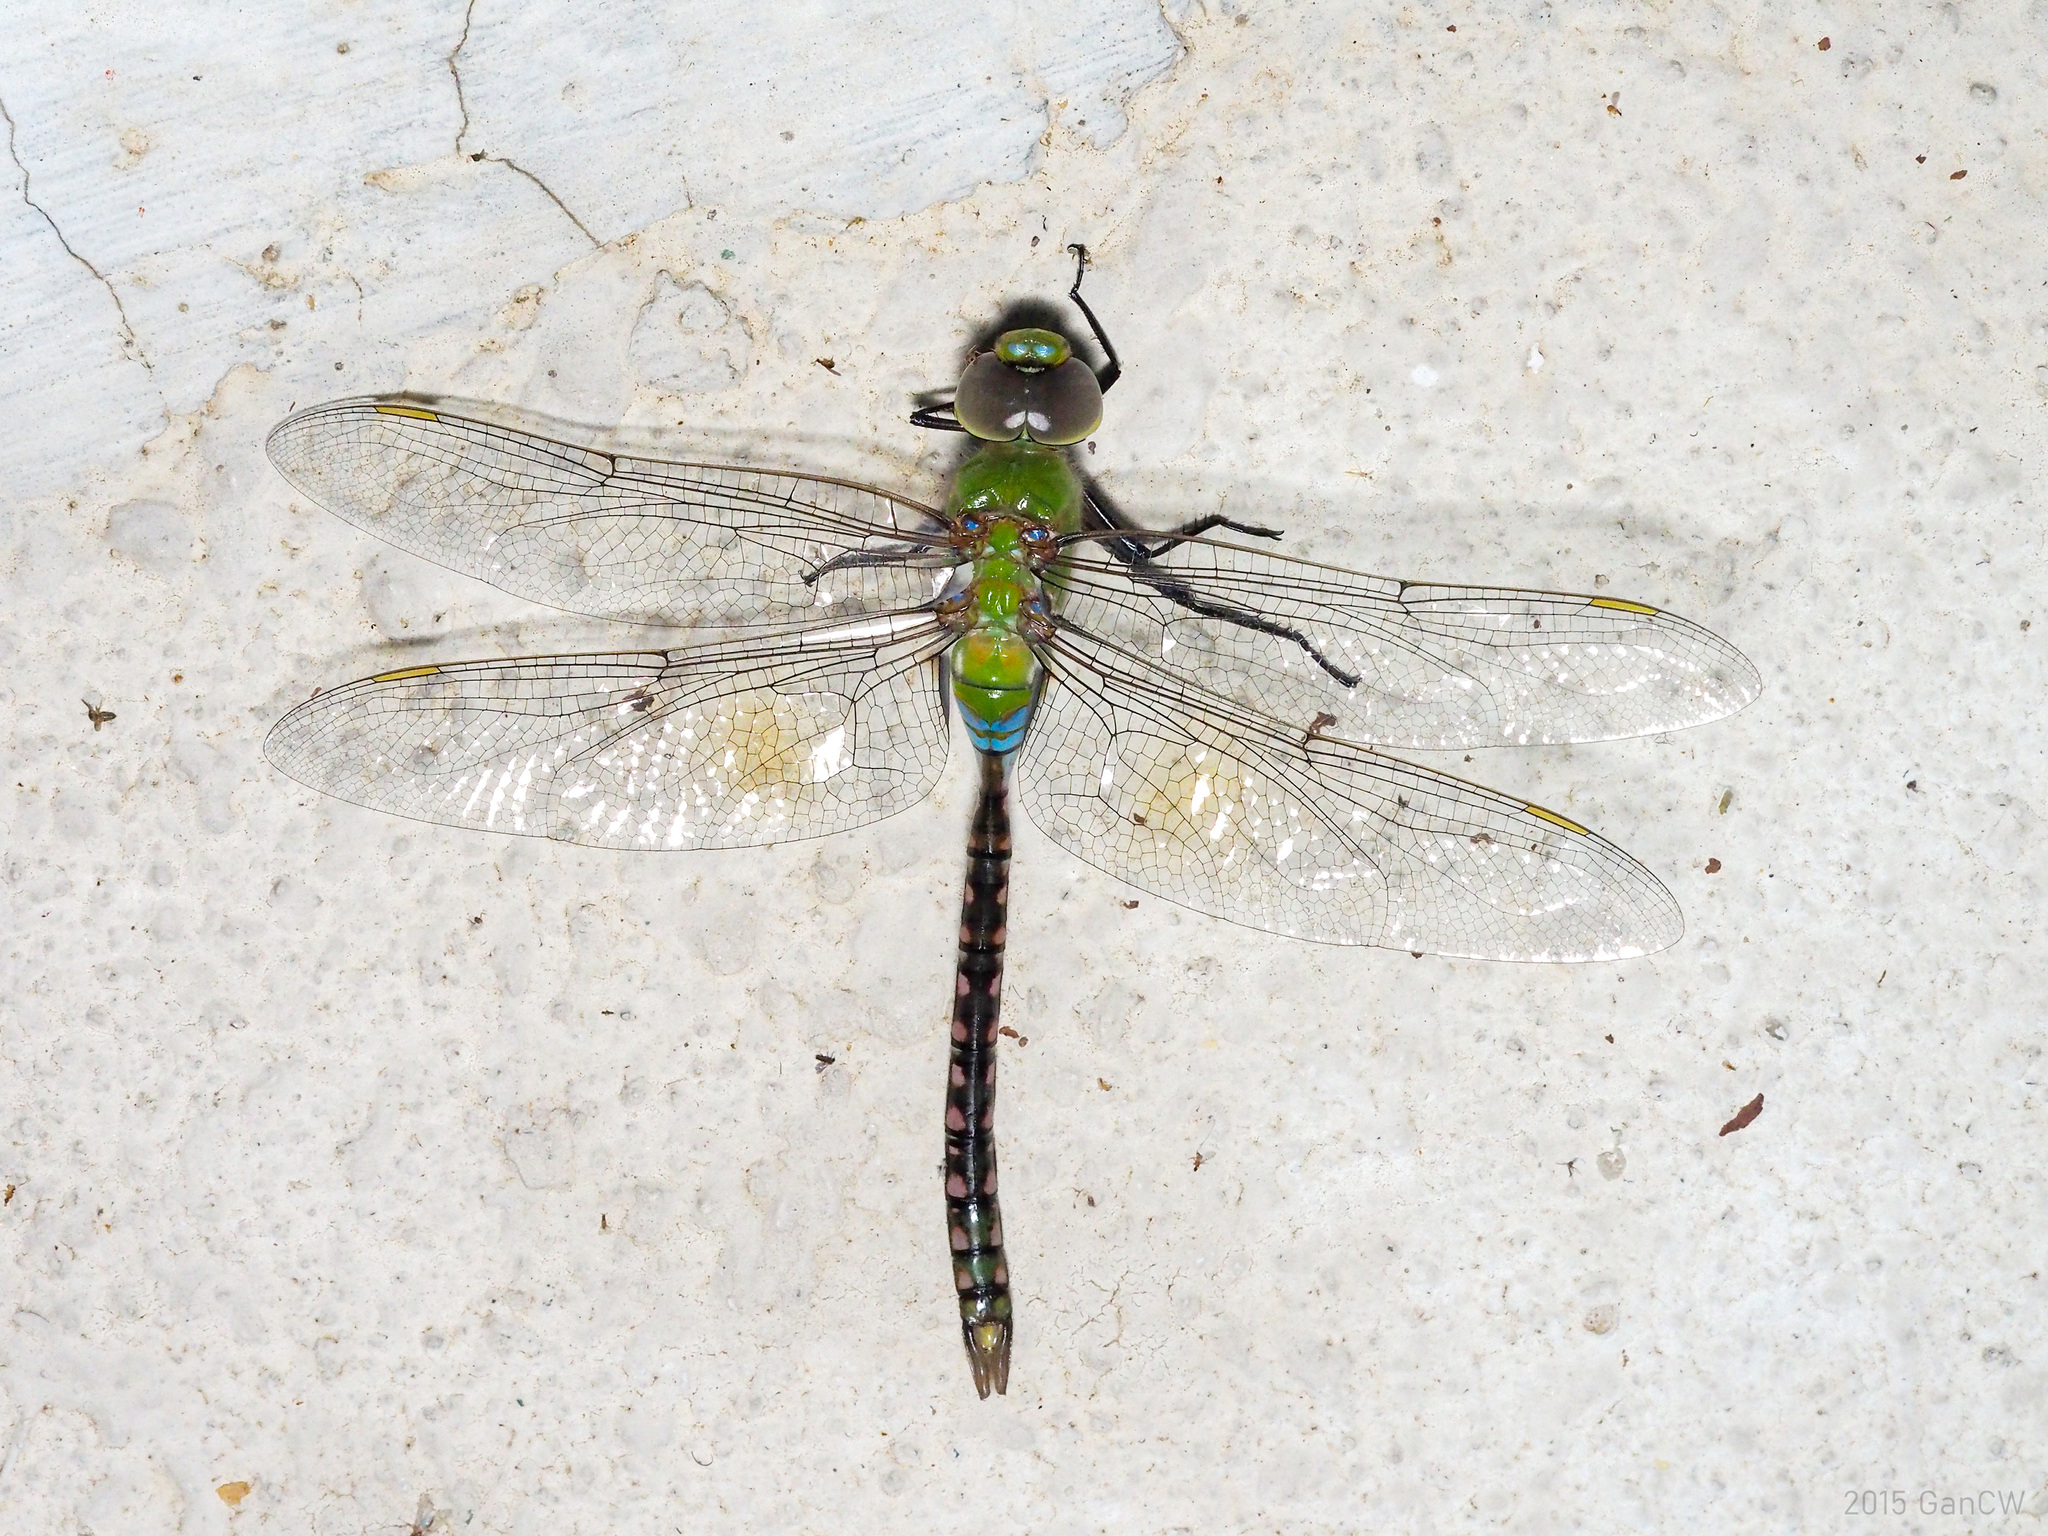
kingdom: Animalia
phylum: Arthropoda
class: Insecta
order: Odonata
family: Aeshnidae
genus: Anax
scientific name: Anax guttatus
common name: Emperor
